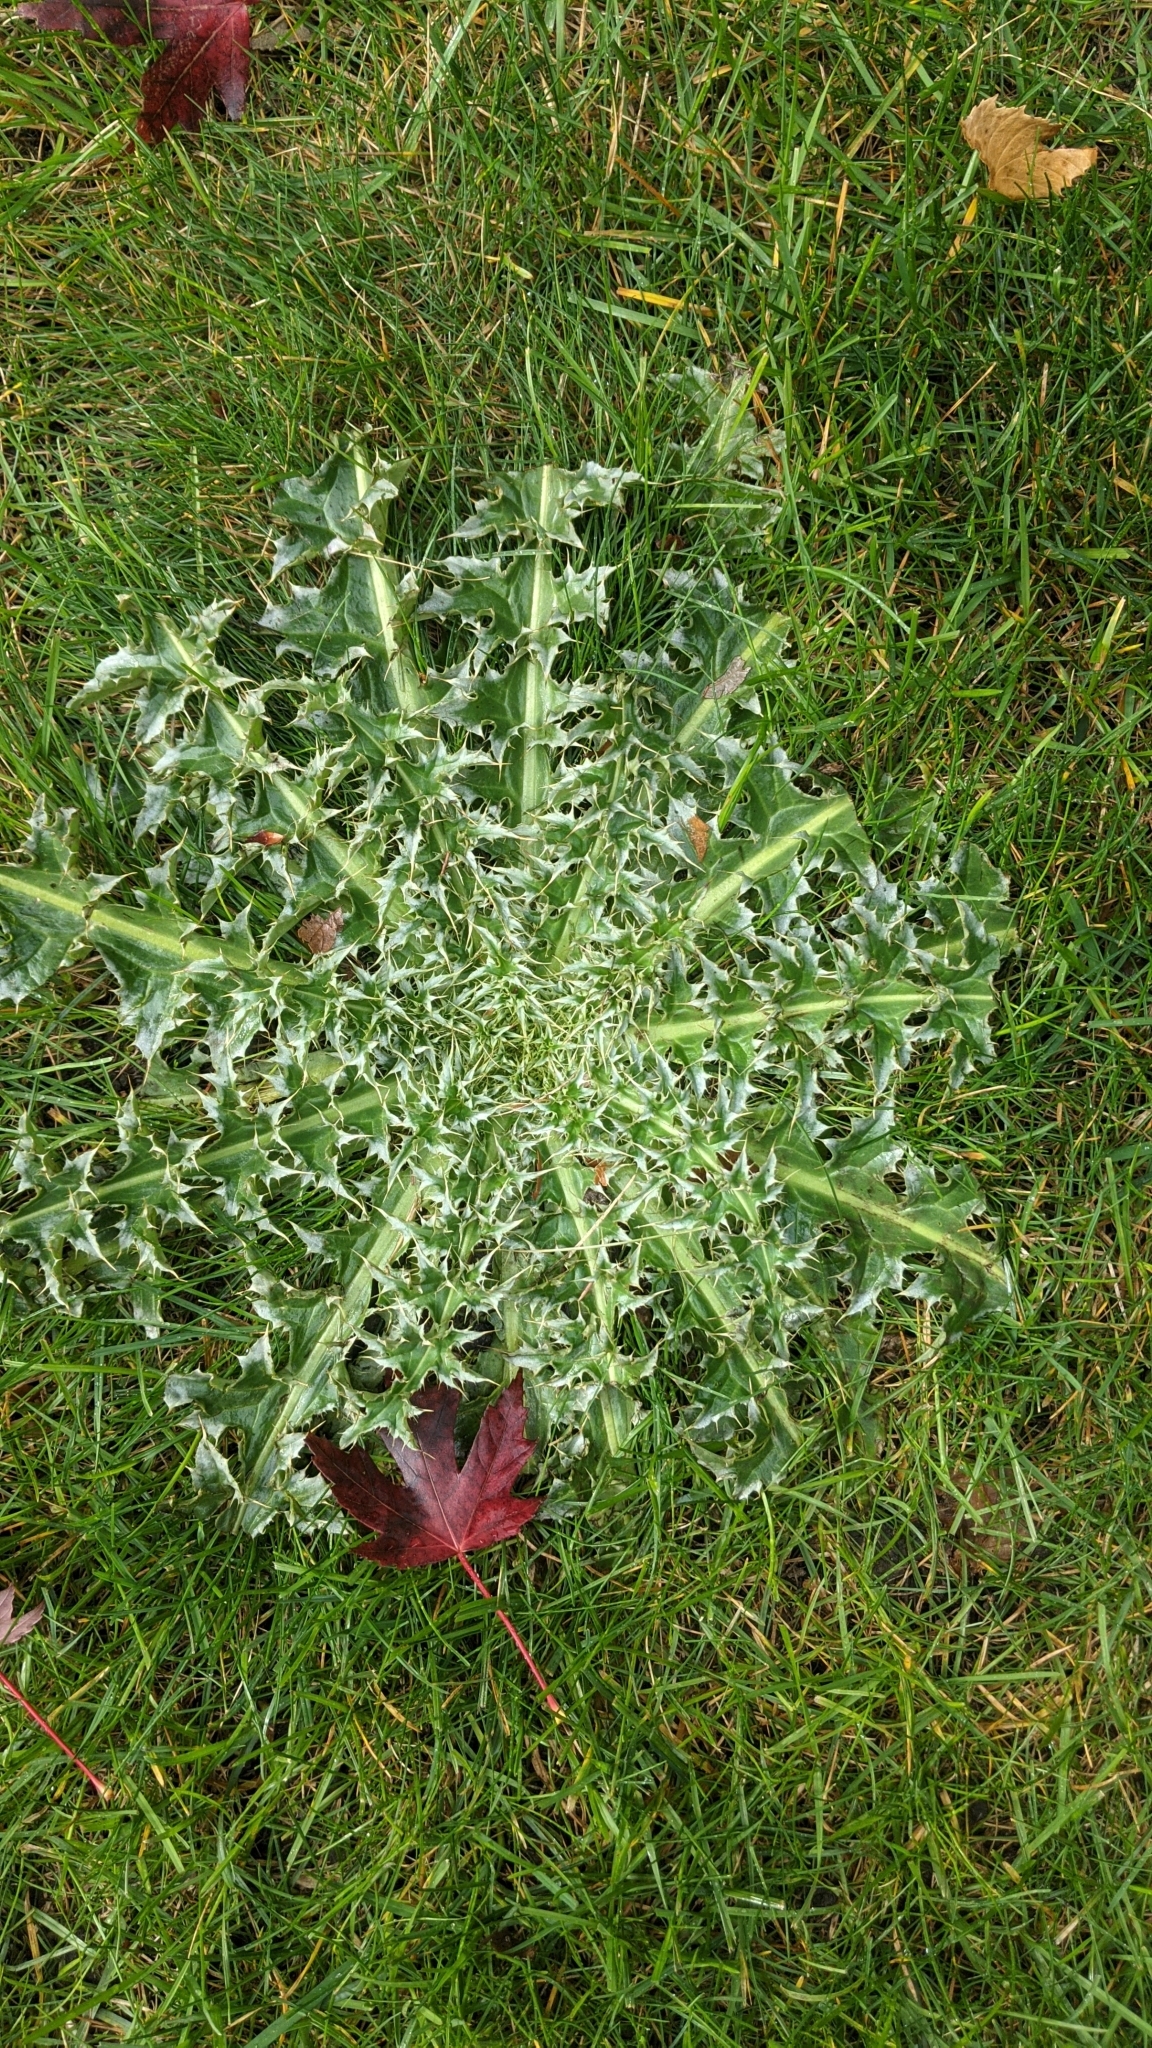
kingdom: Plantae
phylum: Tracheophyta
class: Magnoliopsida
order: Asterales
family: Asteraceae
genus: Carduus
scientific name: Carduus nutans
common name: Musk thistle
